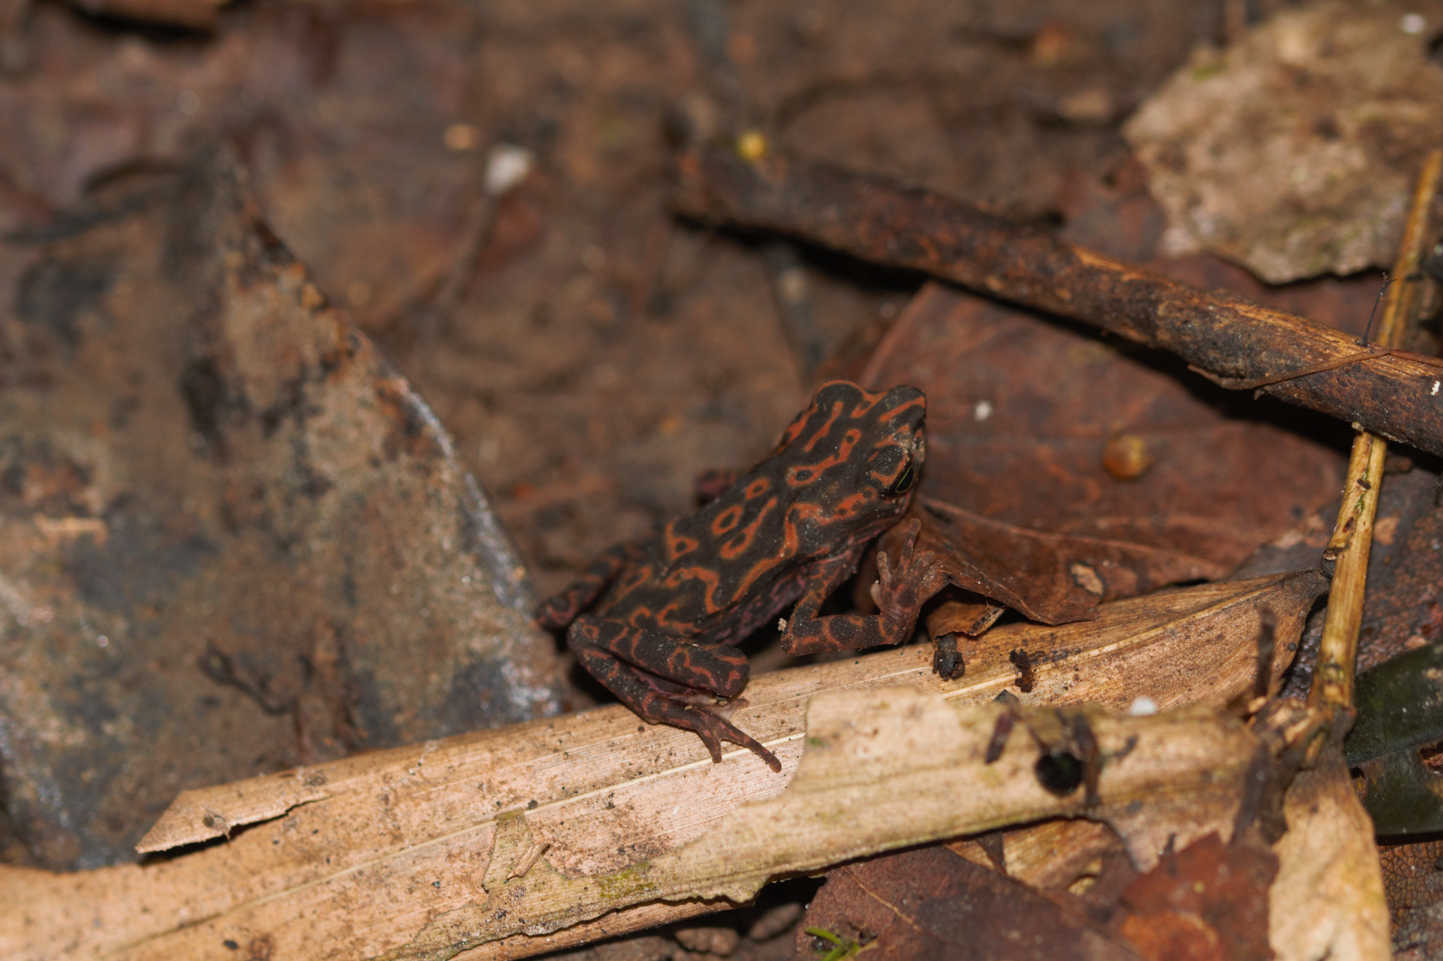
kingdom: Animalia
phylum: Chordata
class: Amphibia
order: Anura
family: Bufonidae
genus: Atelopus
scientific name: Atelopus flavescens
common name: Cayenne stubfoot toad
